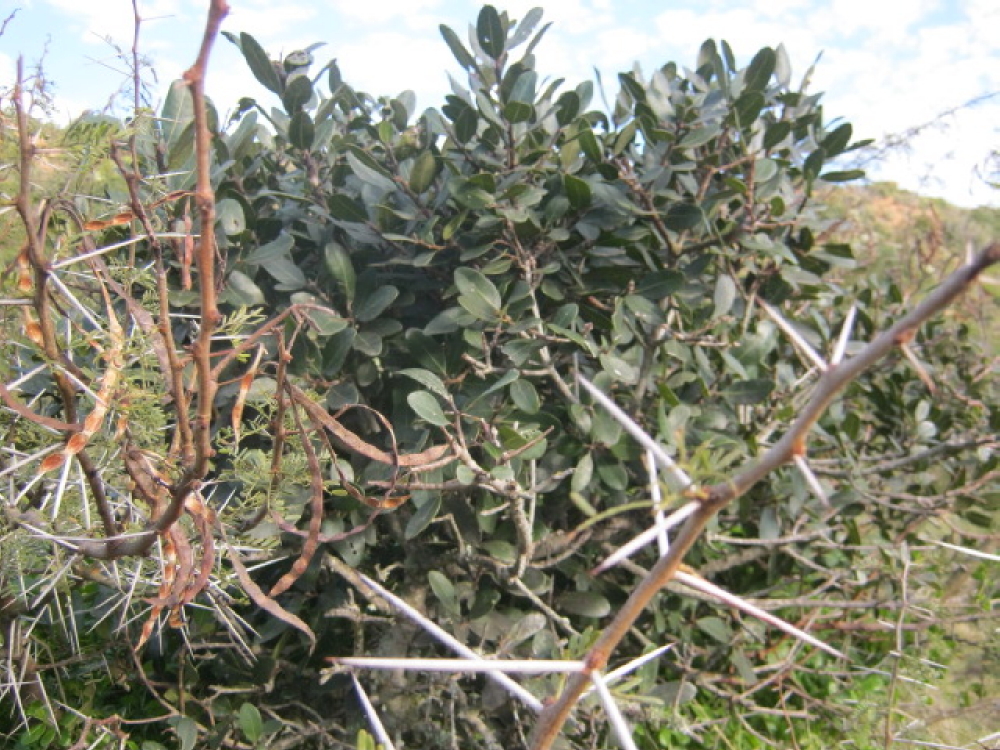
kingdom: Plantae
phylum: Tracheophyta
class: Magnoliopsida
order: Fabales
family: Fabaceae
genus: Vachellia
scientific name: Vachellia karroo
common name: Sweet thorn
